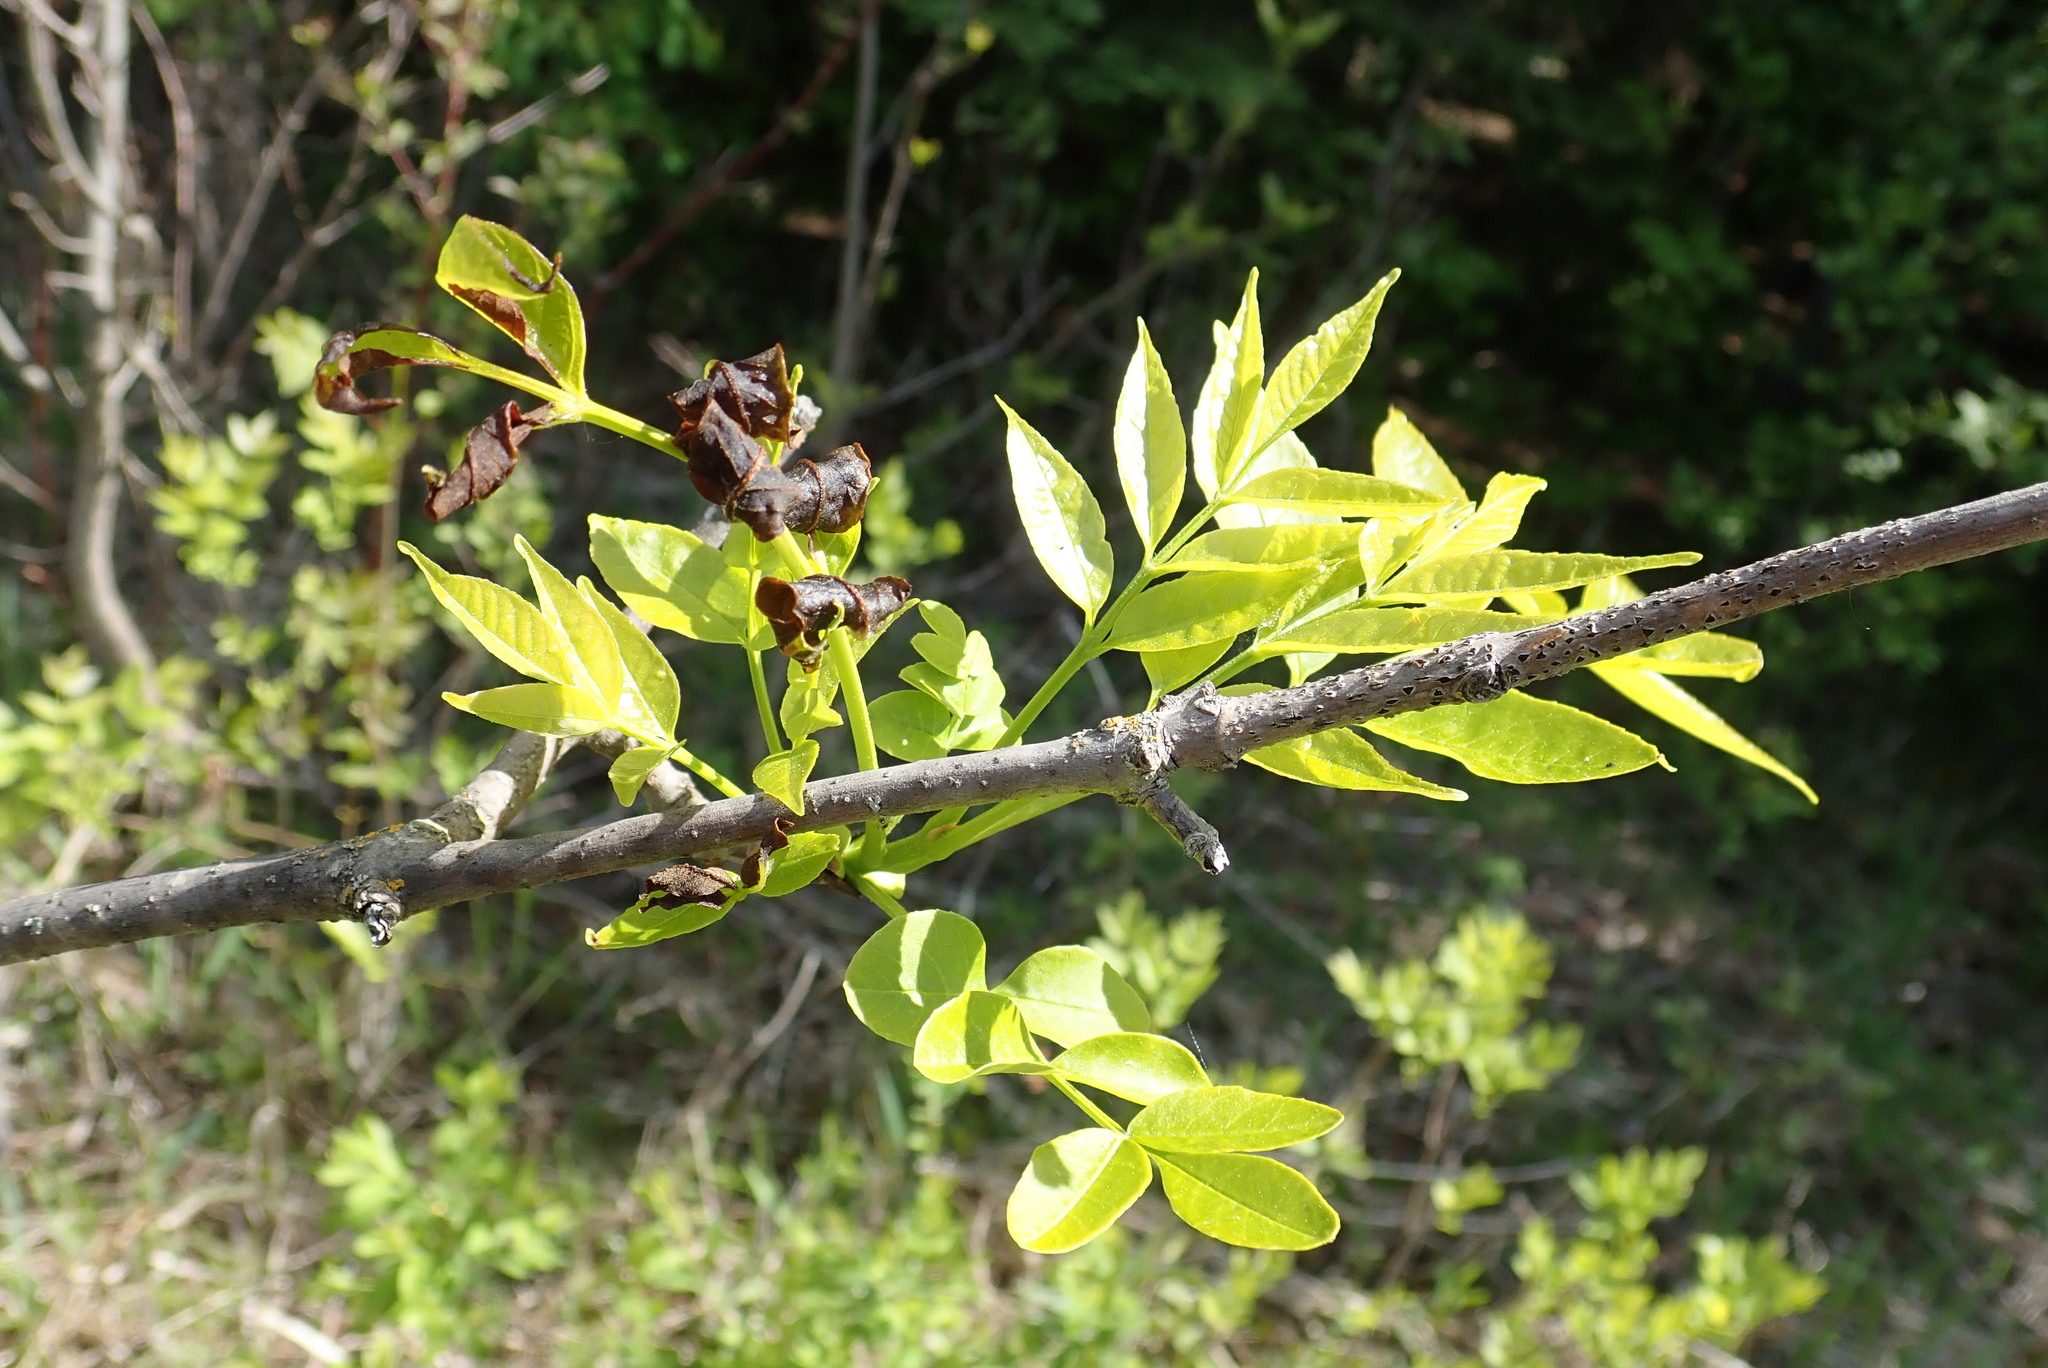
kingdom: Plantae
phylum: Tracheophyta
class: Magnoliopsida
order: Lamiales
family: Oleaceae
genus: Fraxinus
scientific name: Fraxinus nigra
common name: Black ash
